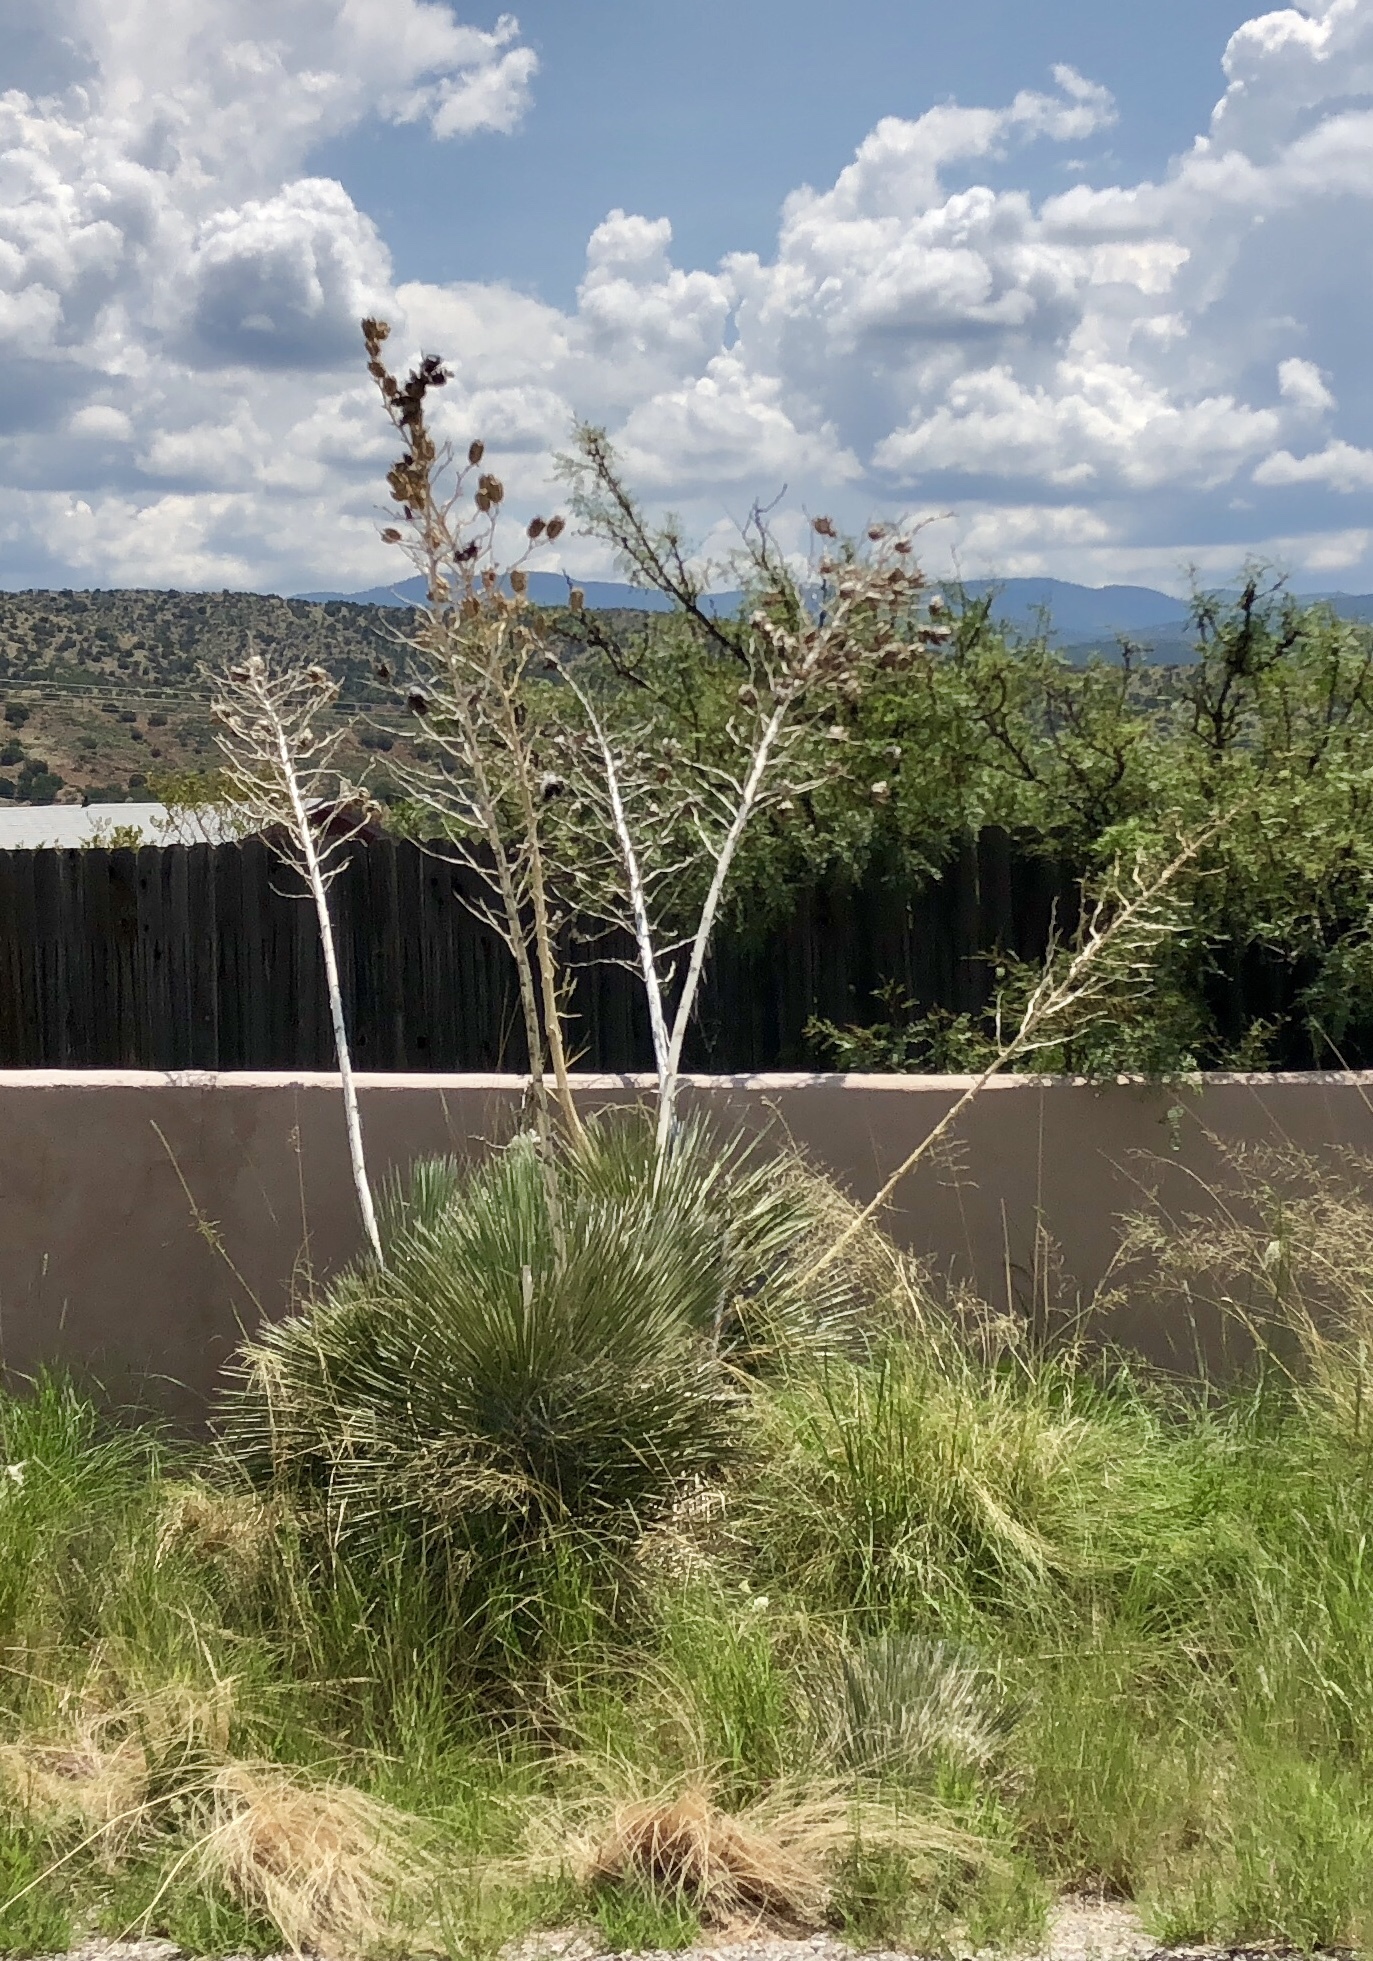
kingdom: Plantae
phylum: Tracheophyta
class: Liliopsida
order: Asparagales
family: Asparagaceae
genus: Yucca
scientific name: Yucca elata
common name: Palmella
